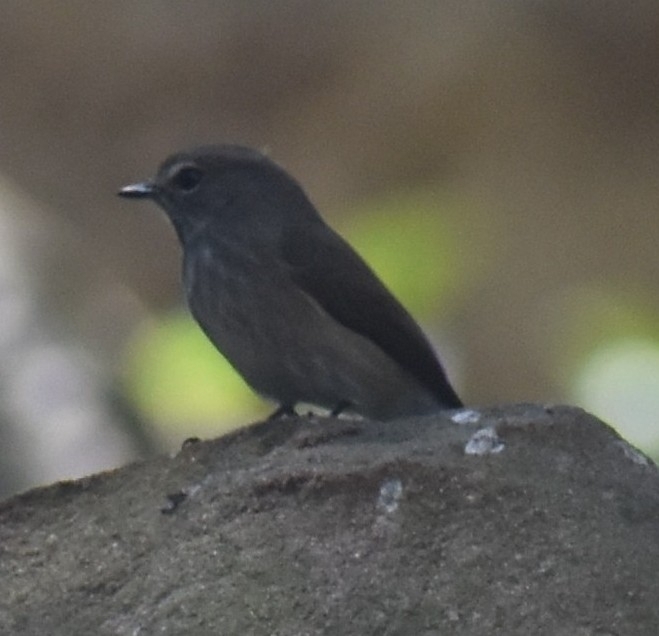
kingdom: Animalia
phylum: Chordata
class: Aves
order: Passeriformes
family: Muscicapidae
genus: Muscicapa
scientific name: Muscicapa adusta
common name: African dusky flycatcher
